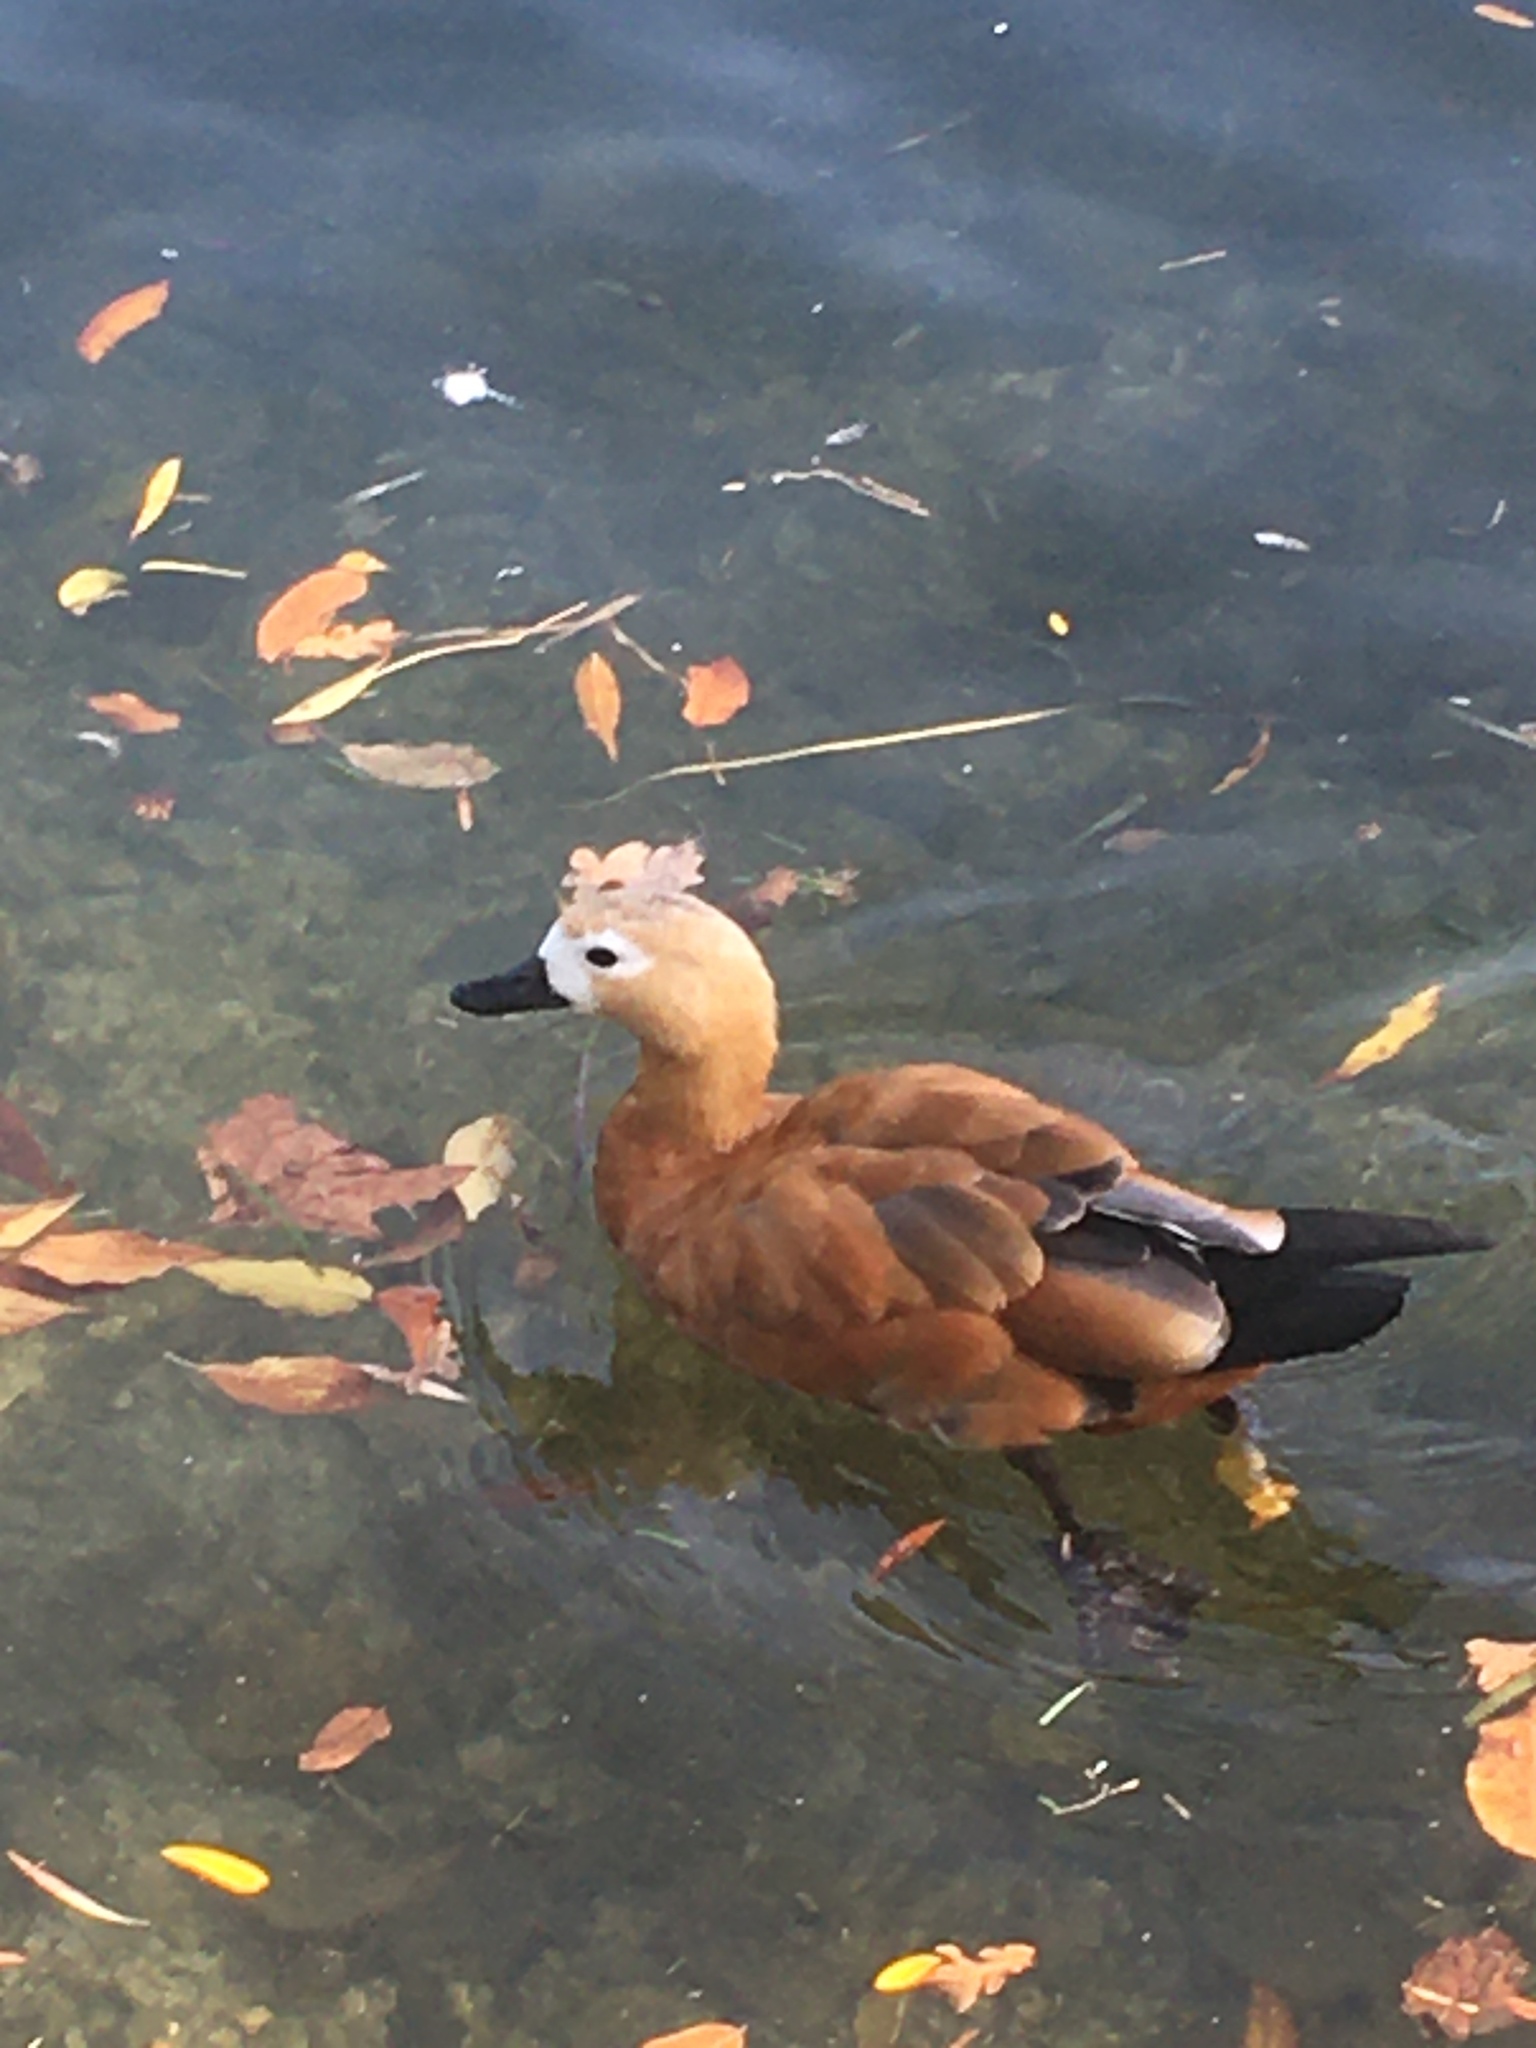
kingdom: Animalia
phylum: Chordata
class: Aves
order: Anseriformes
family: Anatidae
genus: Tadorna
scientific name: Tadorna ferruginea
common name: Ruddy shelduck
